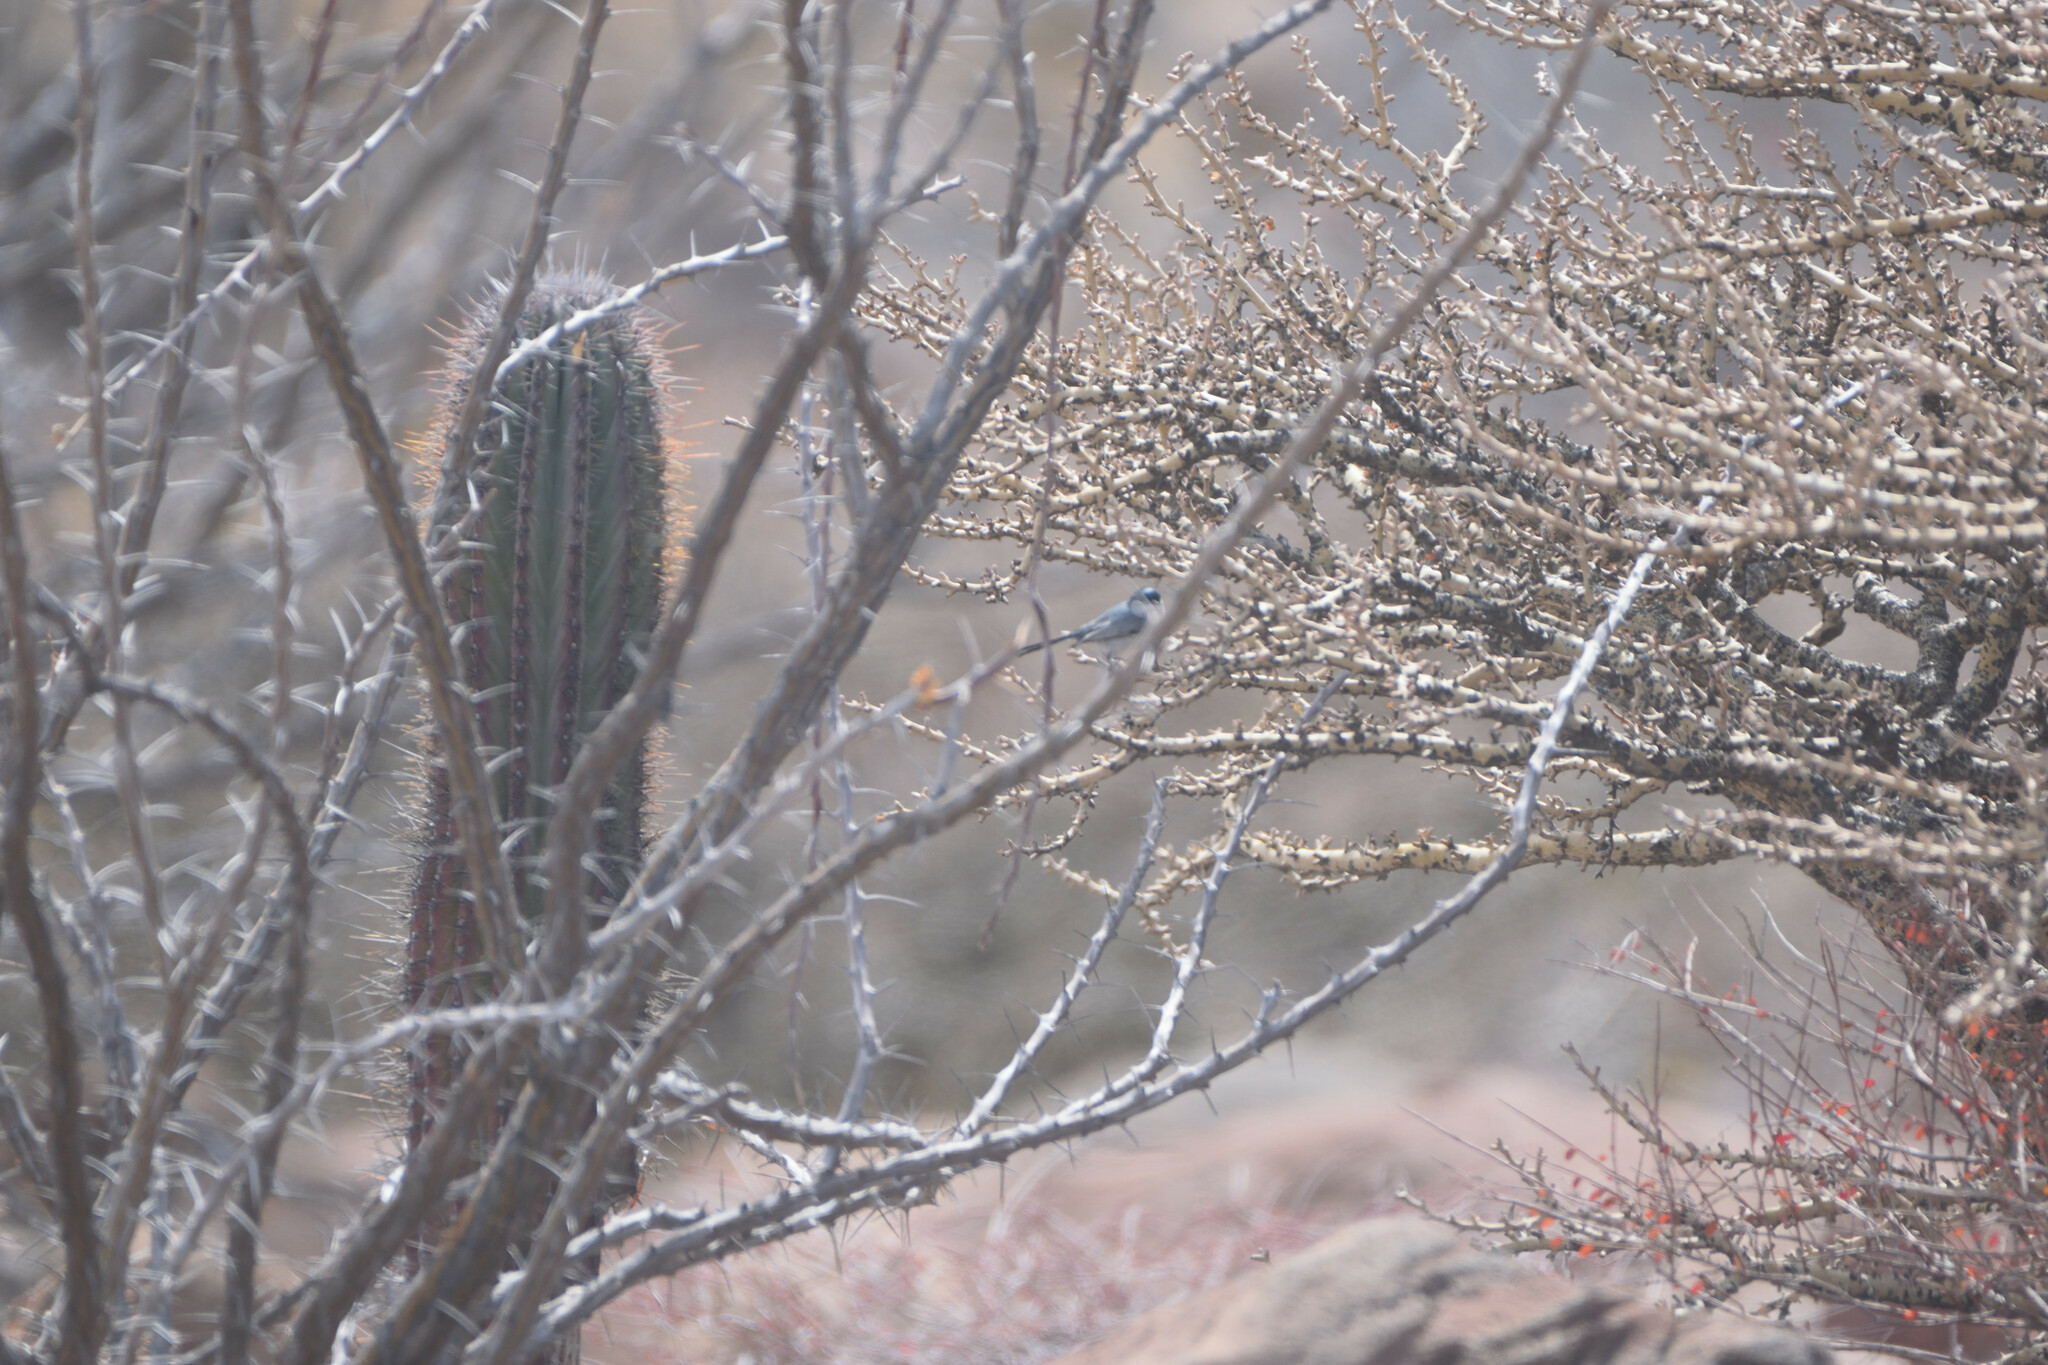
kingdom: Animalia
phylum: Chordata
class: Aves
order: Passeriformes
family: Polioptilidae
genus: Polioptila
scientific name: Polioptila californica
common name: California gnatcatcher
